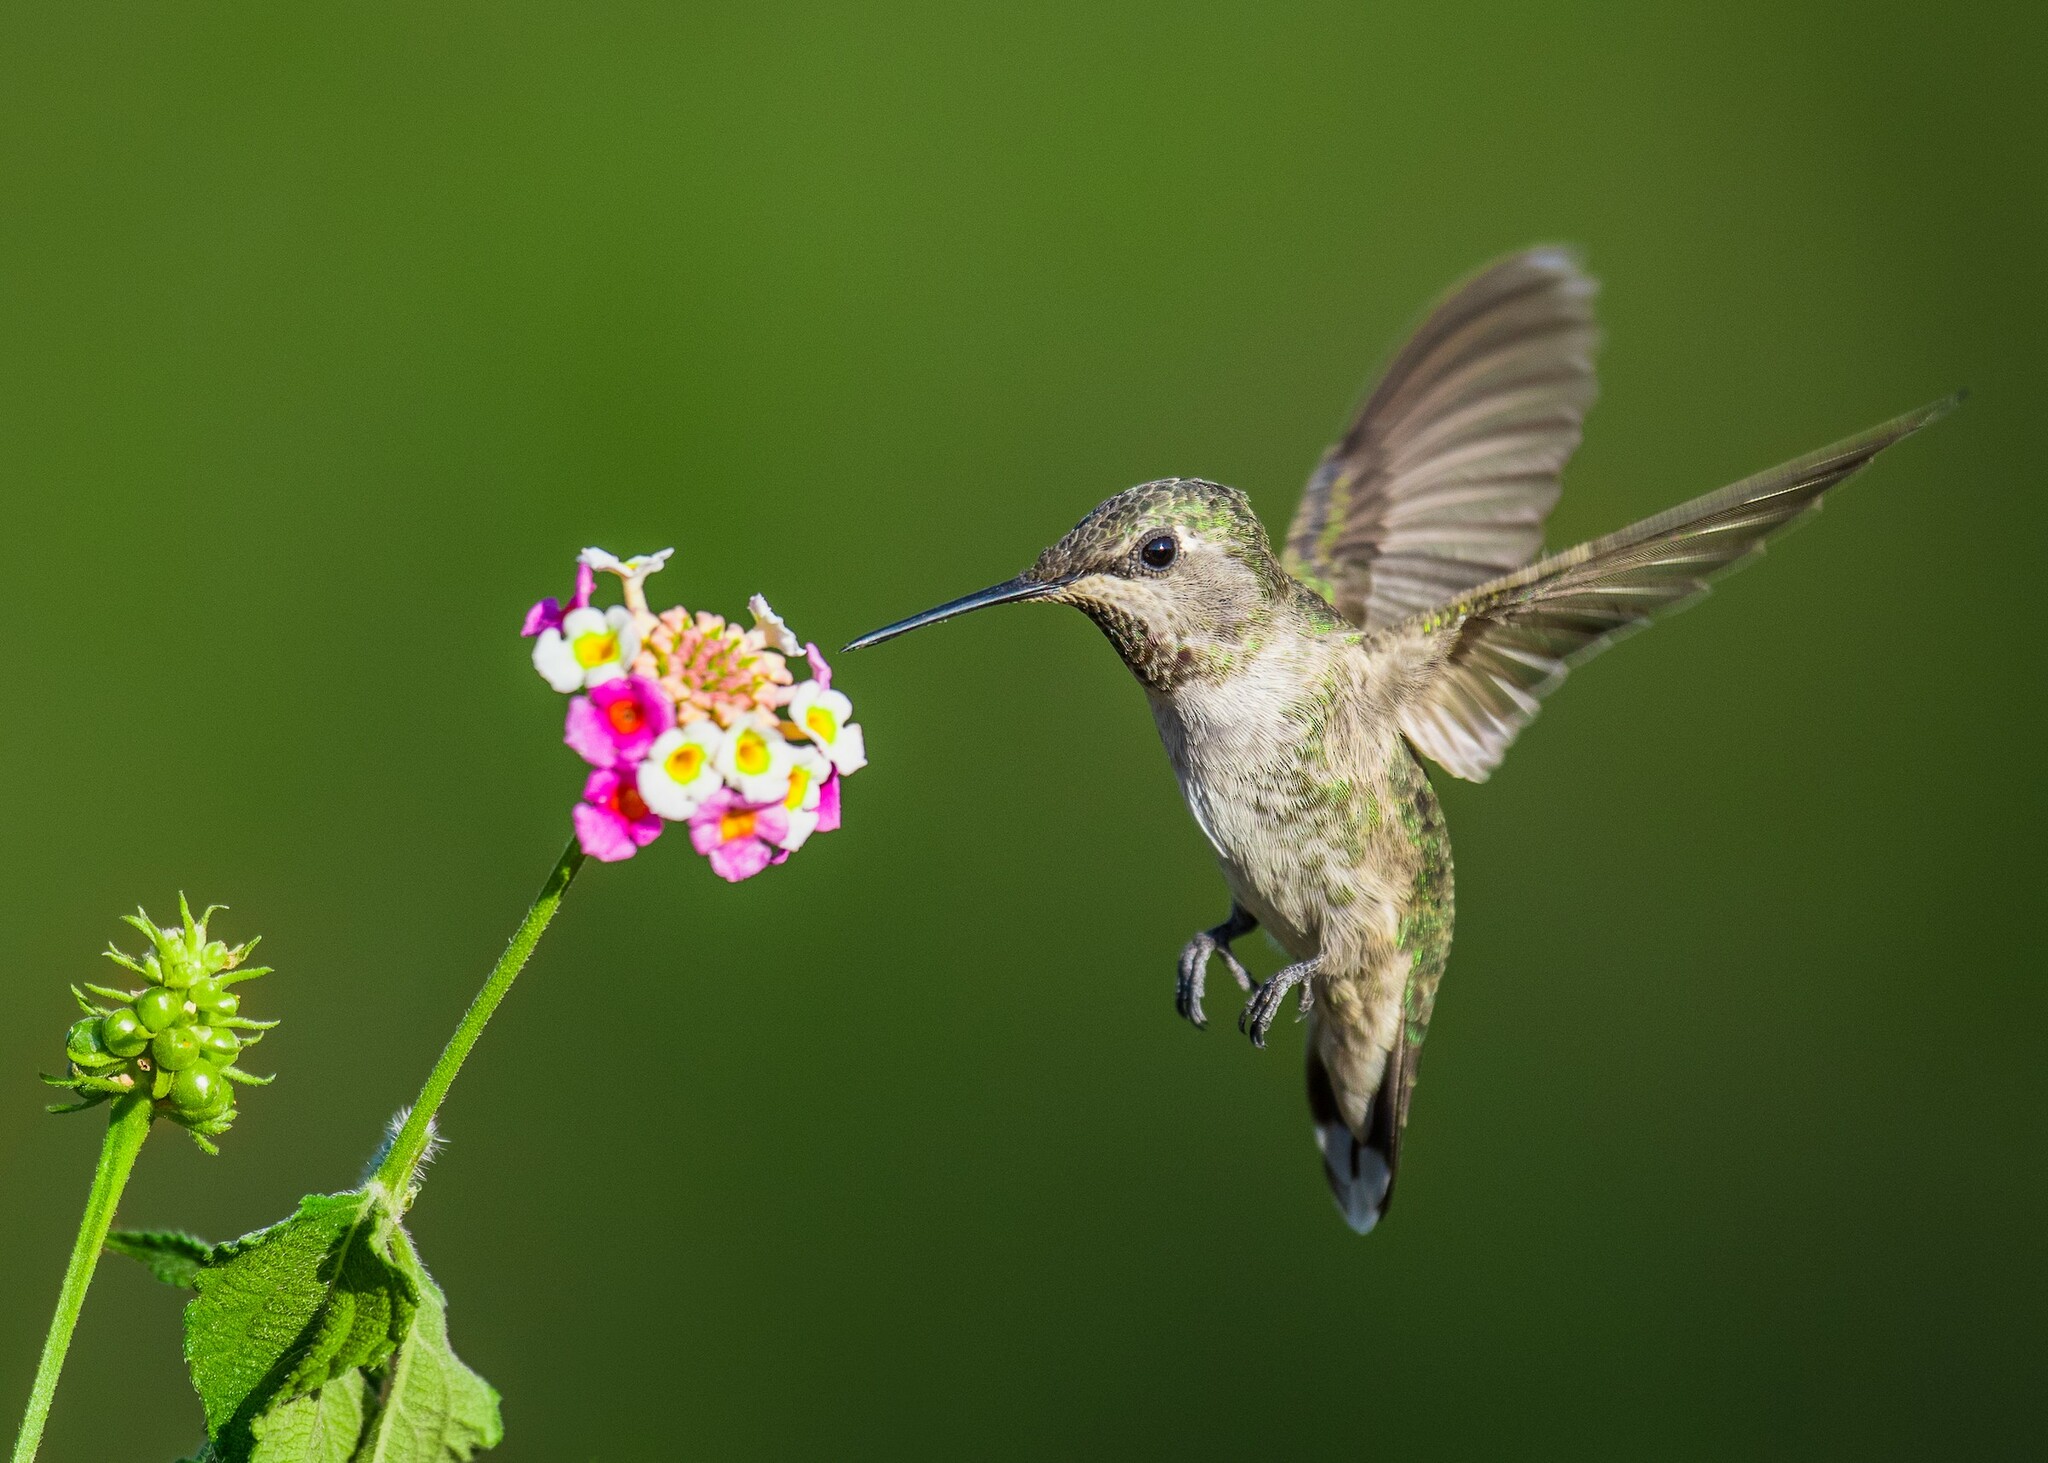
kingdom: Animalia
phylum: Chordata
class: Aves
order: Apodiformes
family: Trochilidae
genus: Calypte
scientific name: Calypte anna
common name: Anna's hummingbird
